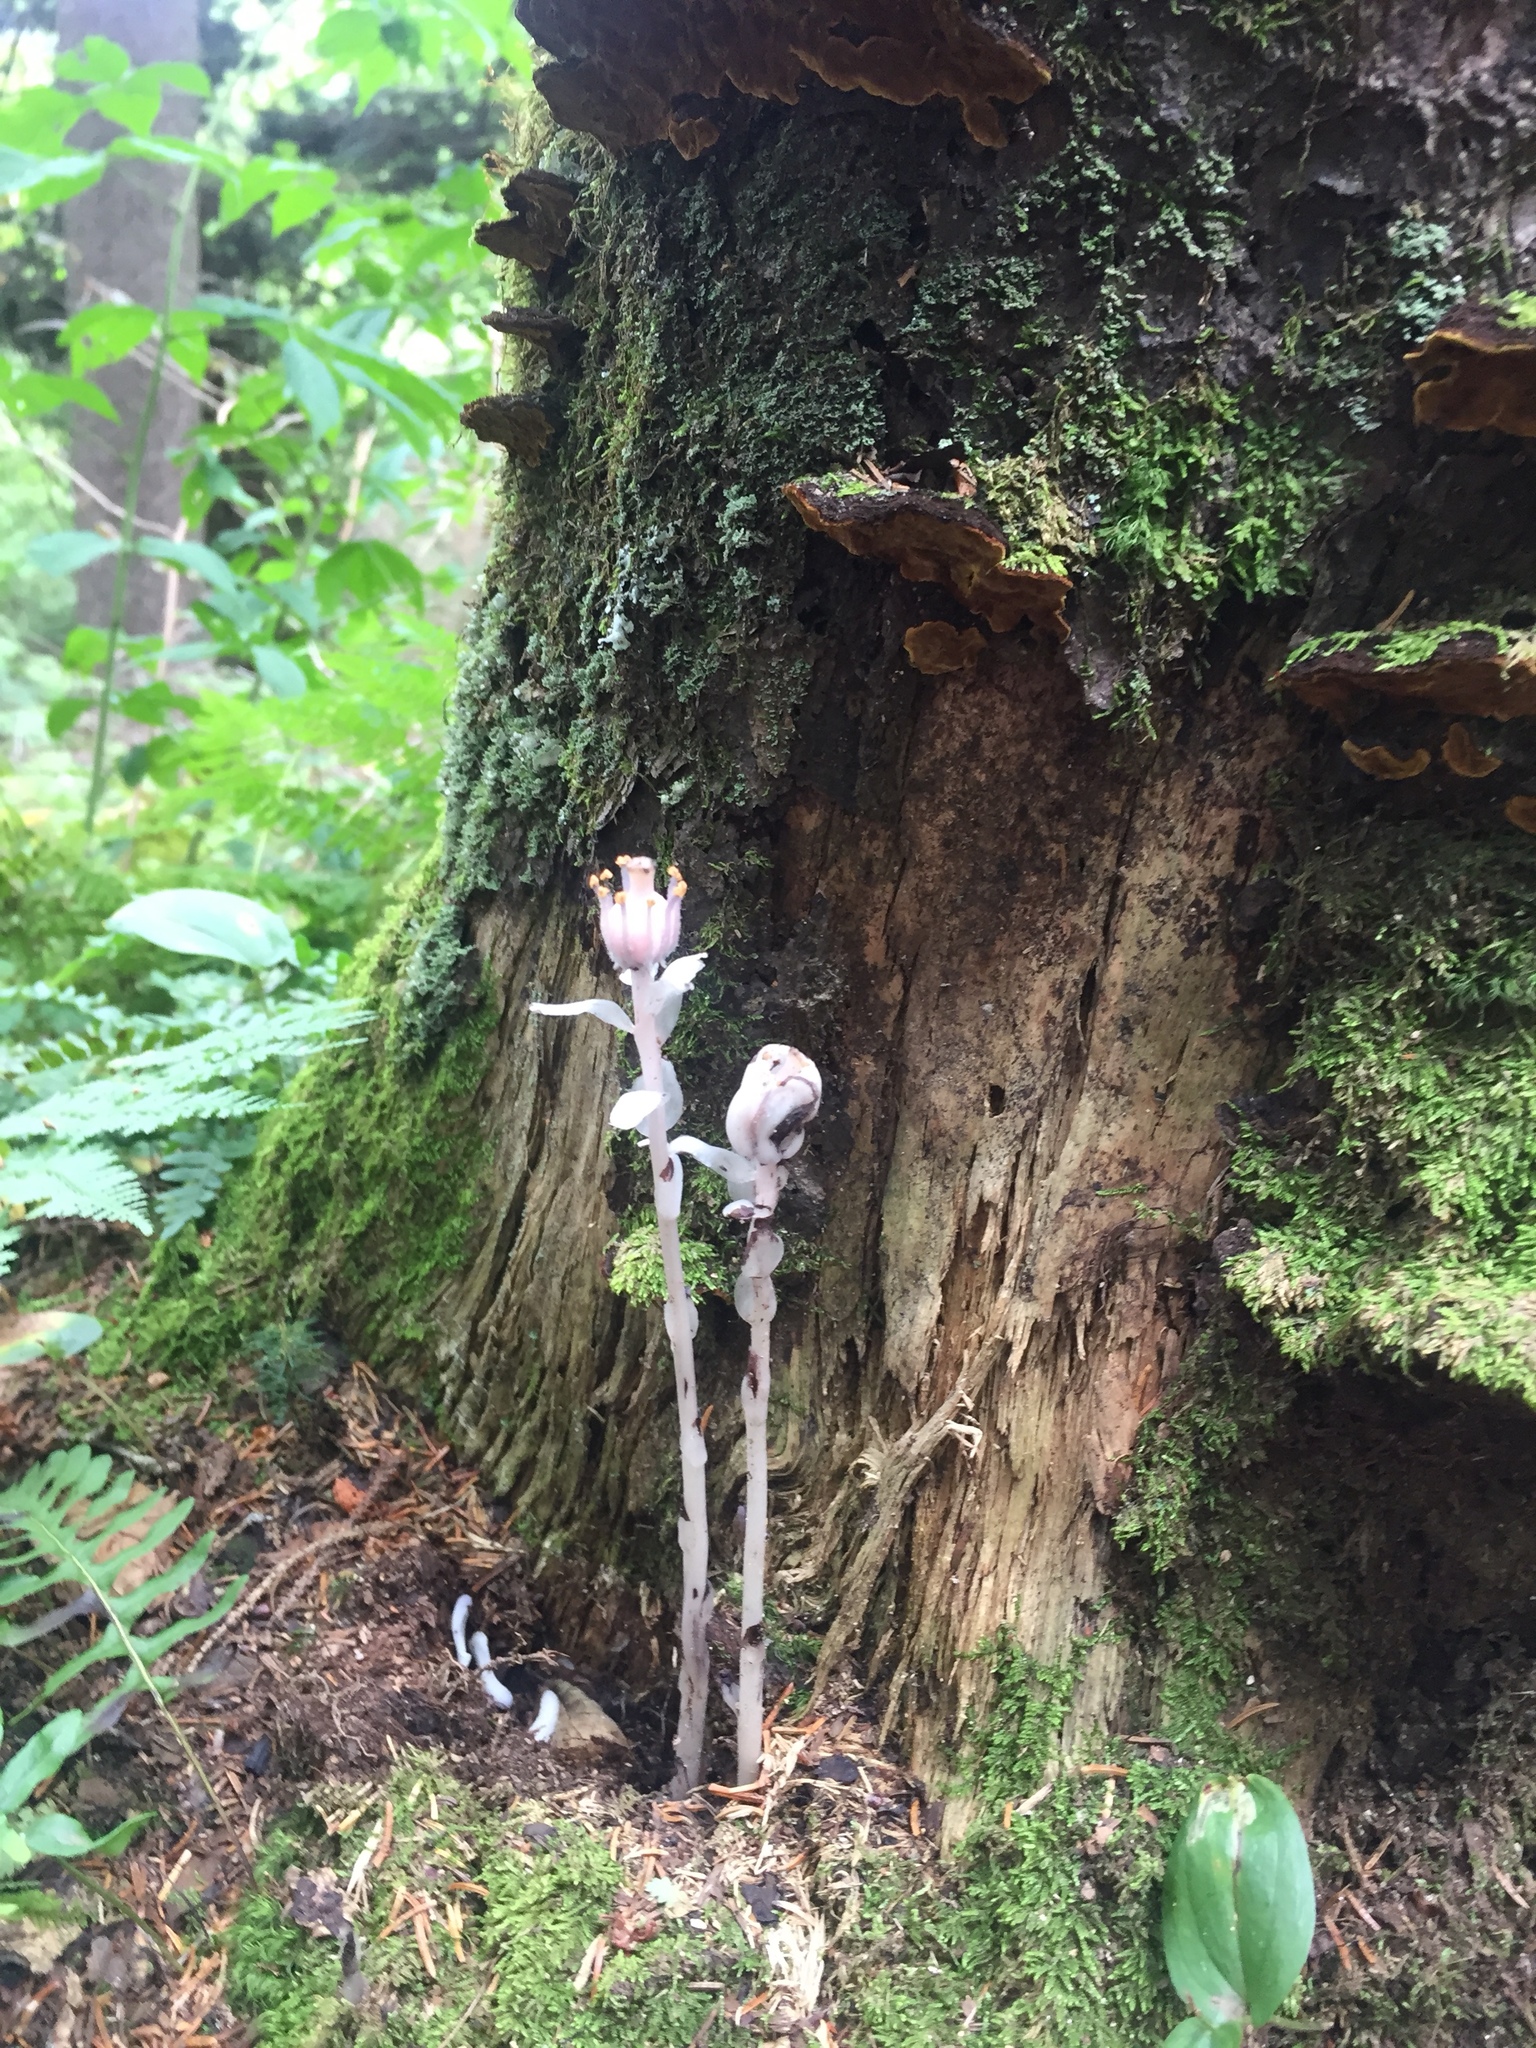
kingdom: Plantae
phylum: Tracheophyta
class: Magnoliopsida
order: Ericales
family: Ericaceae
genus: Monotropa
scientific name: Monotropa uniflora
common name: Convulsion root
